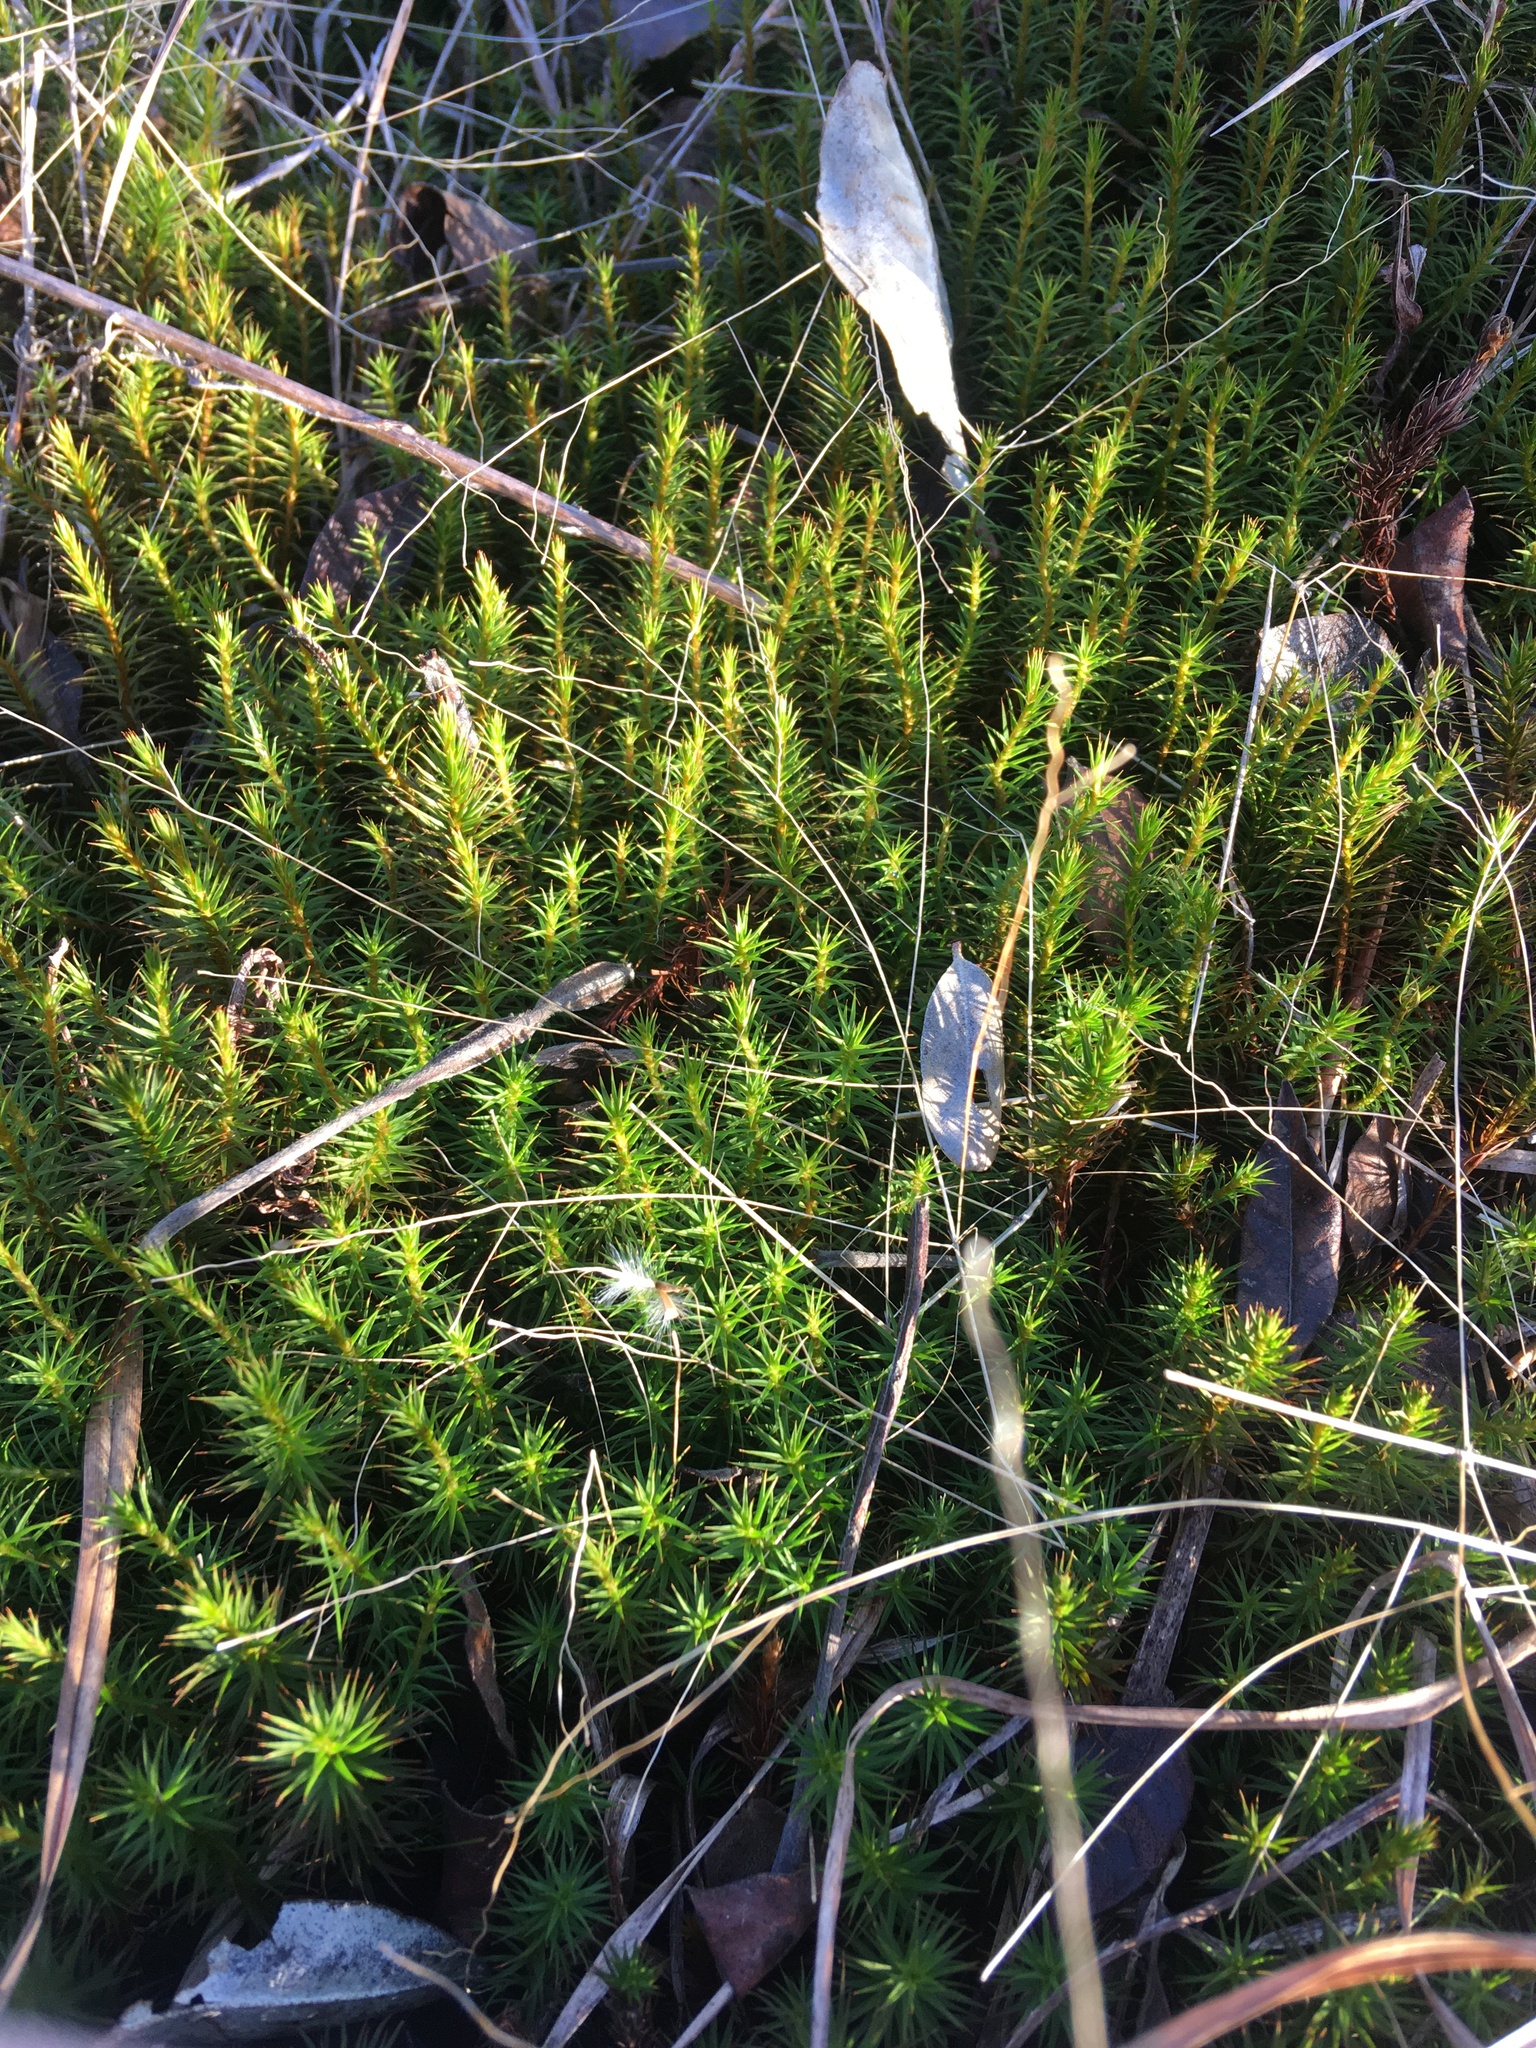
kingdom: Plantae
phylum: Bryophyta
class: Polytrichopsida
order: Polytrichales
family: Polytrichaceae
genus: Polytrichum
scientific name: Polytrichum commune
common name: Common haircap
